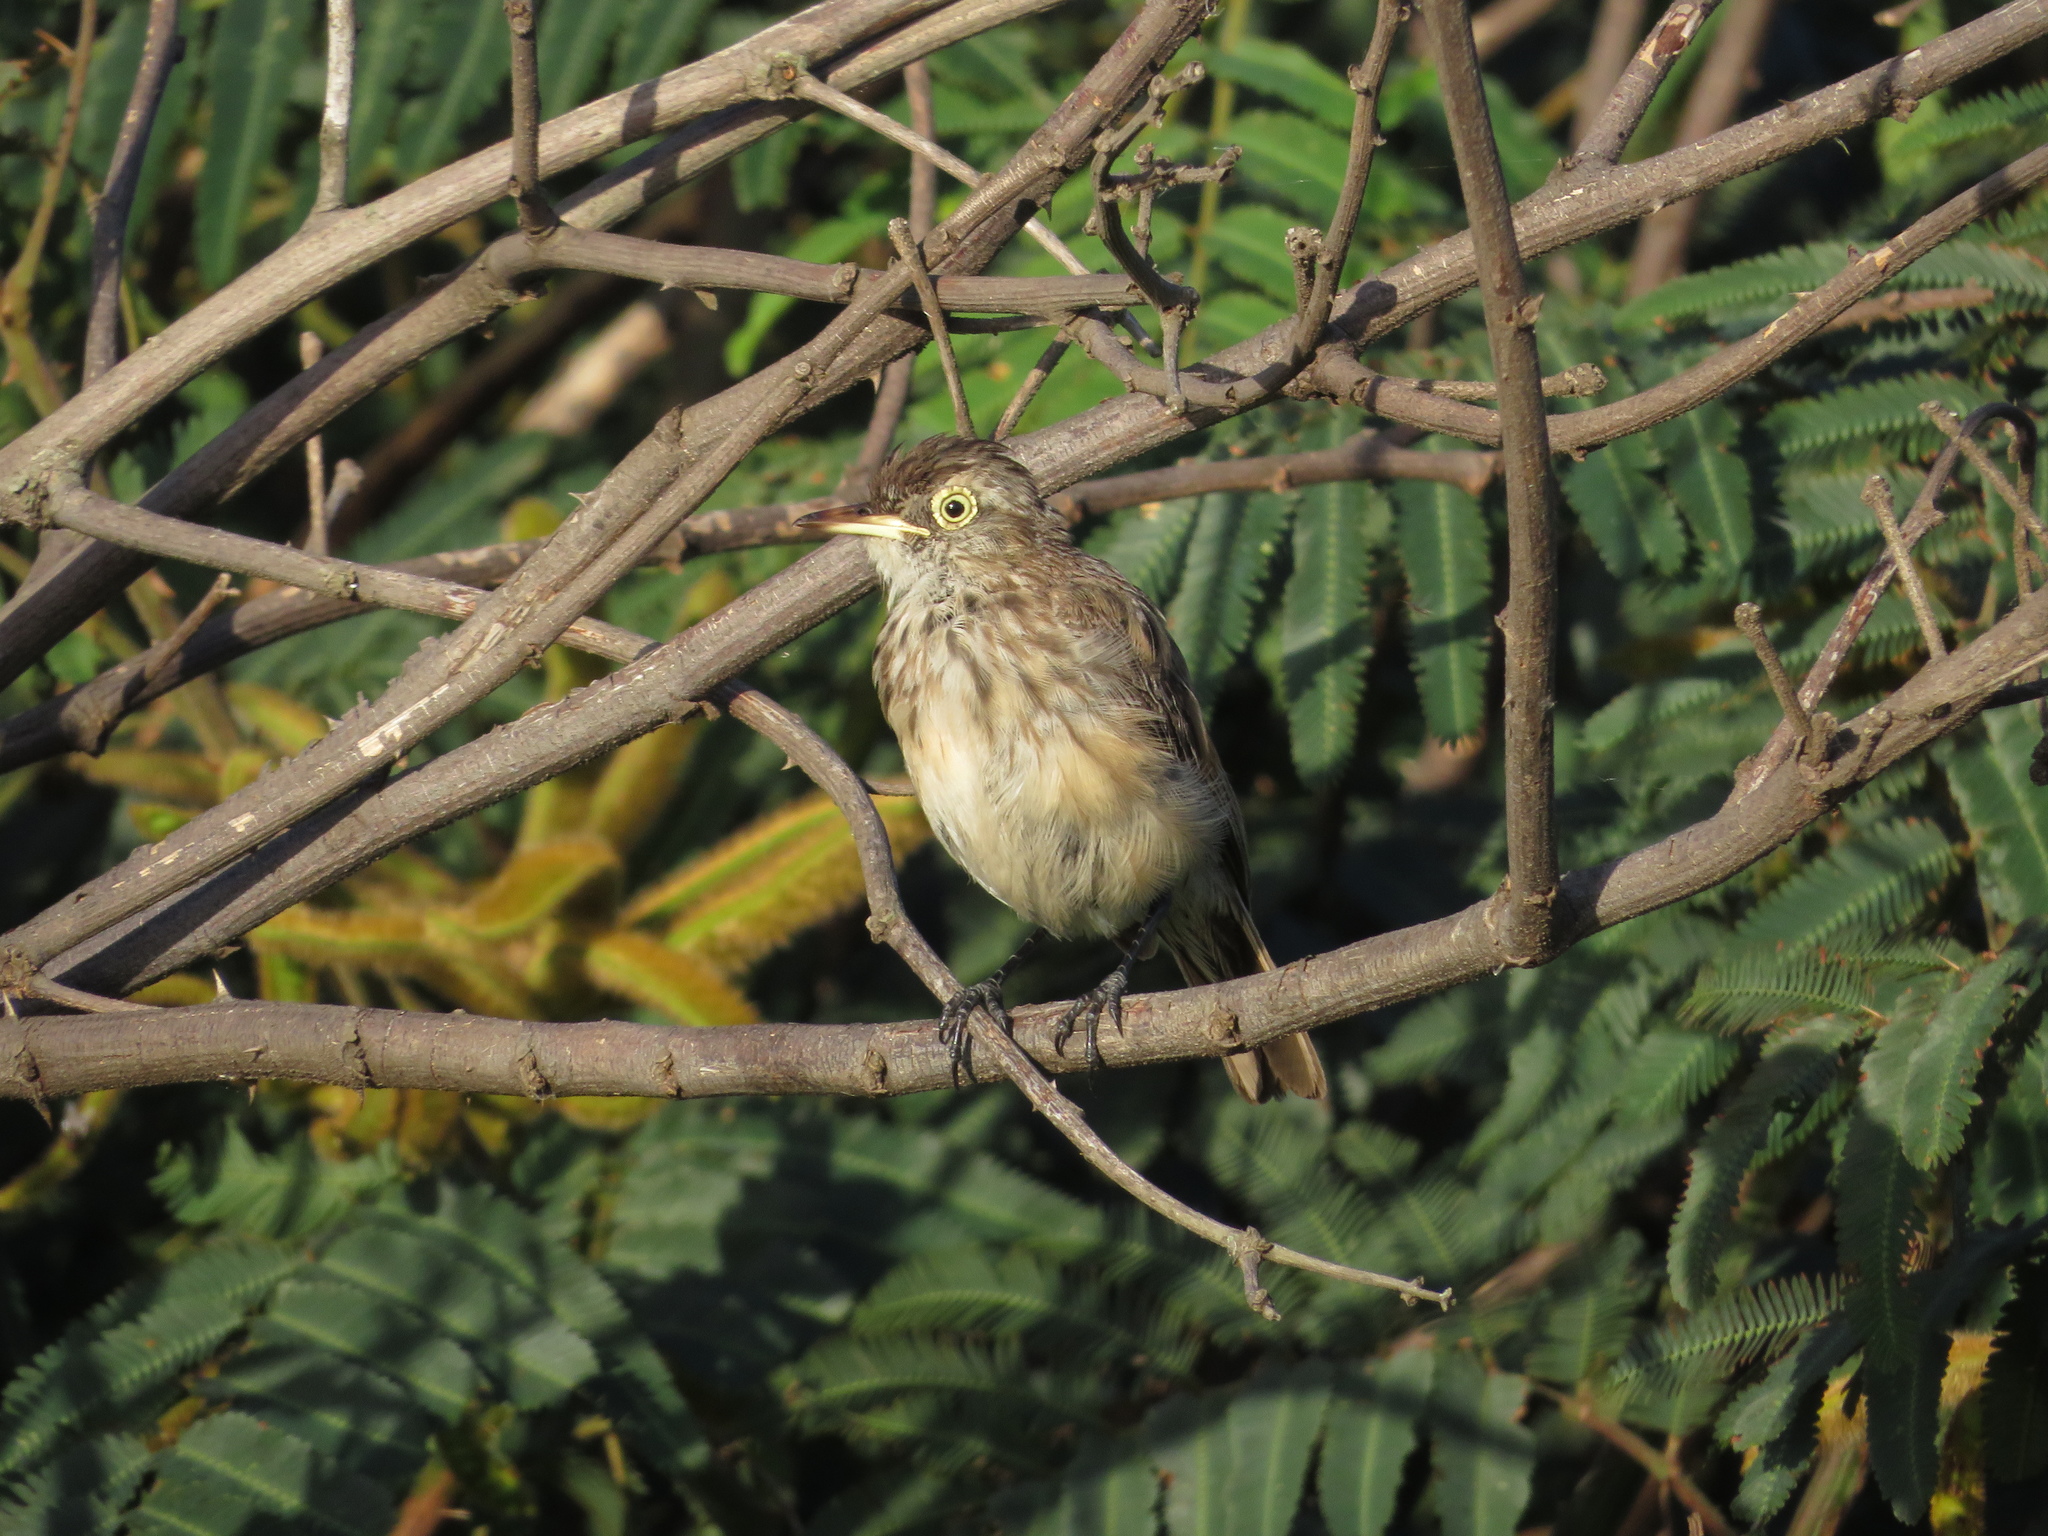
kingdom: Animalia
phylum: Chordata
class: Aves
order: Passeriformes
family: Tyrannidae
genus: Hymenops
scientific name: Hymenops perspicillatus
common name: Spectacled tyrant
